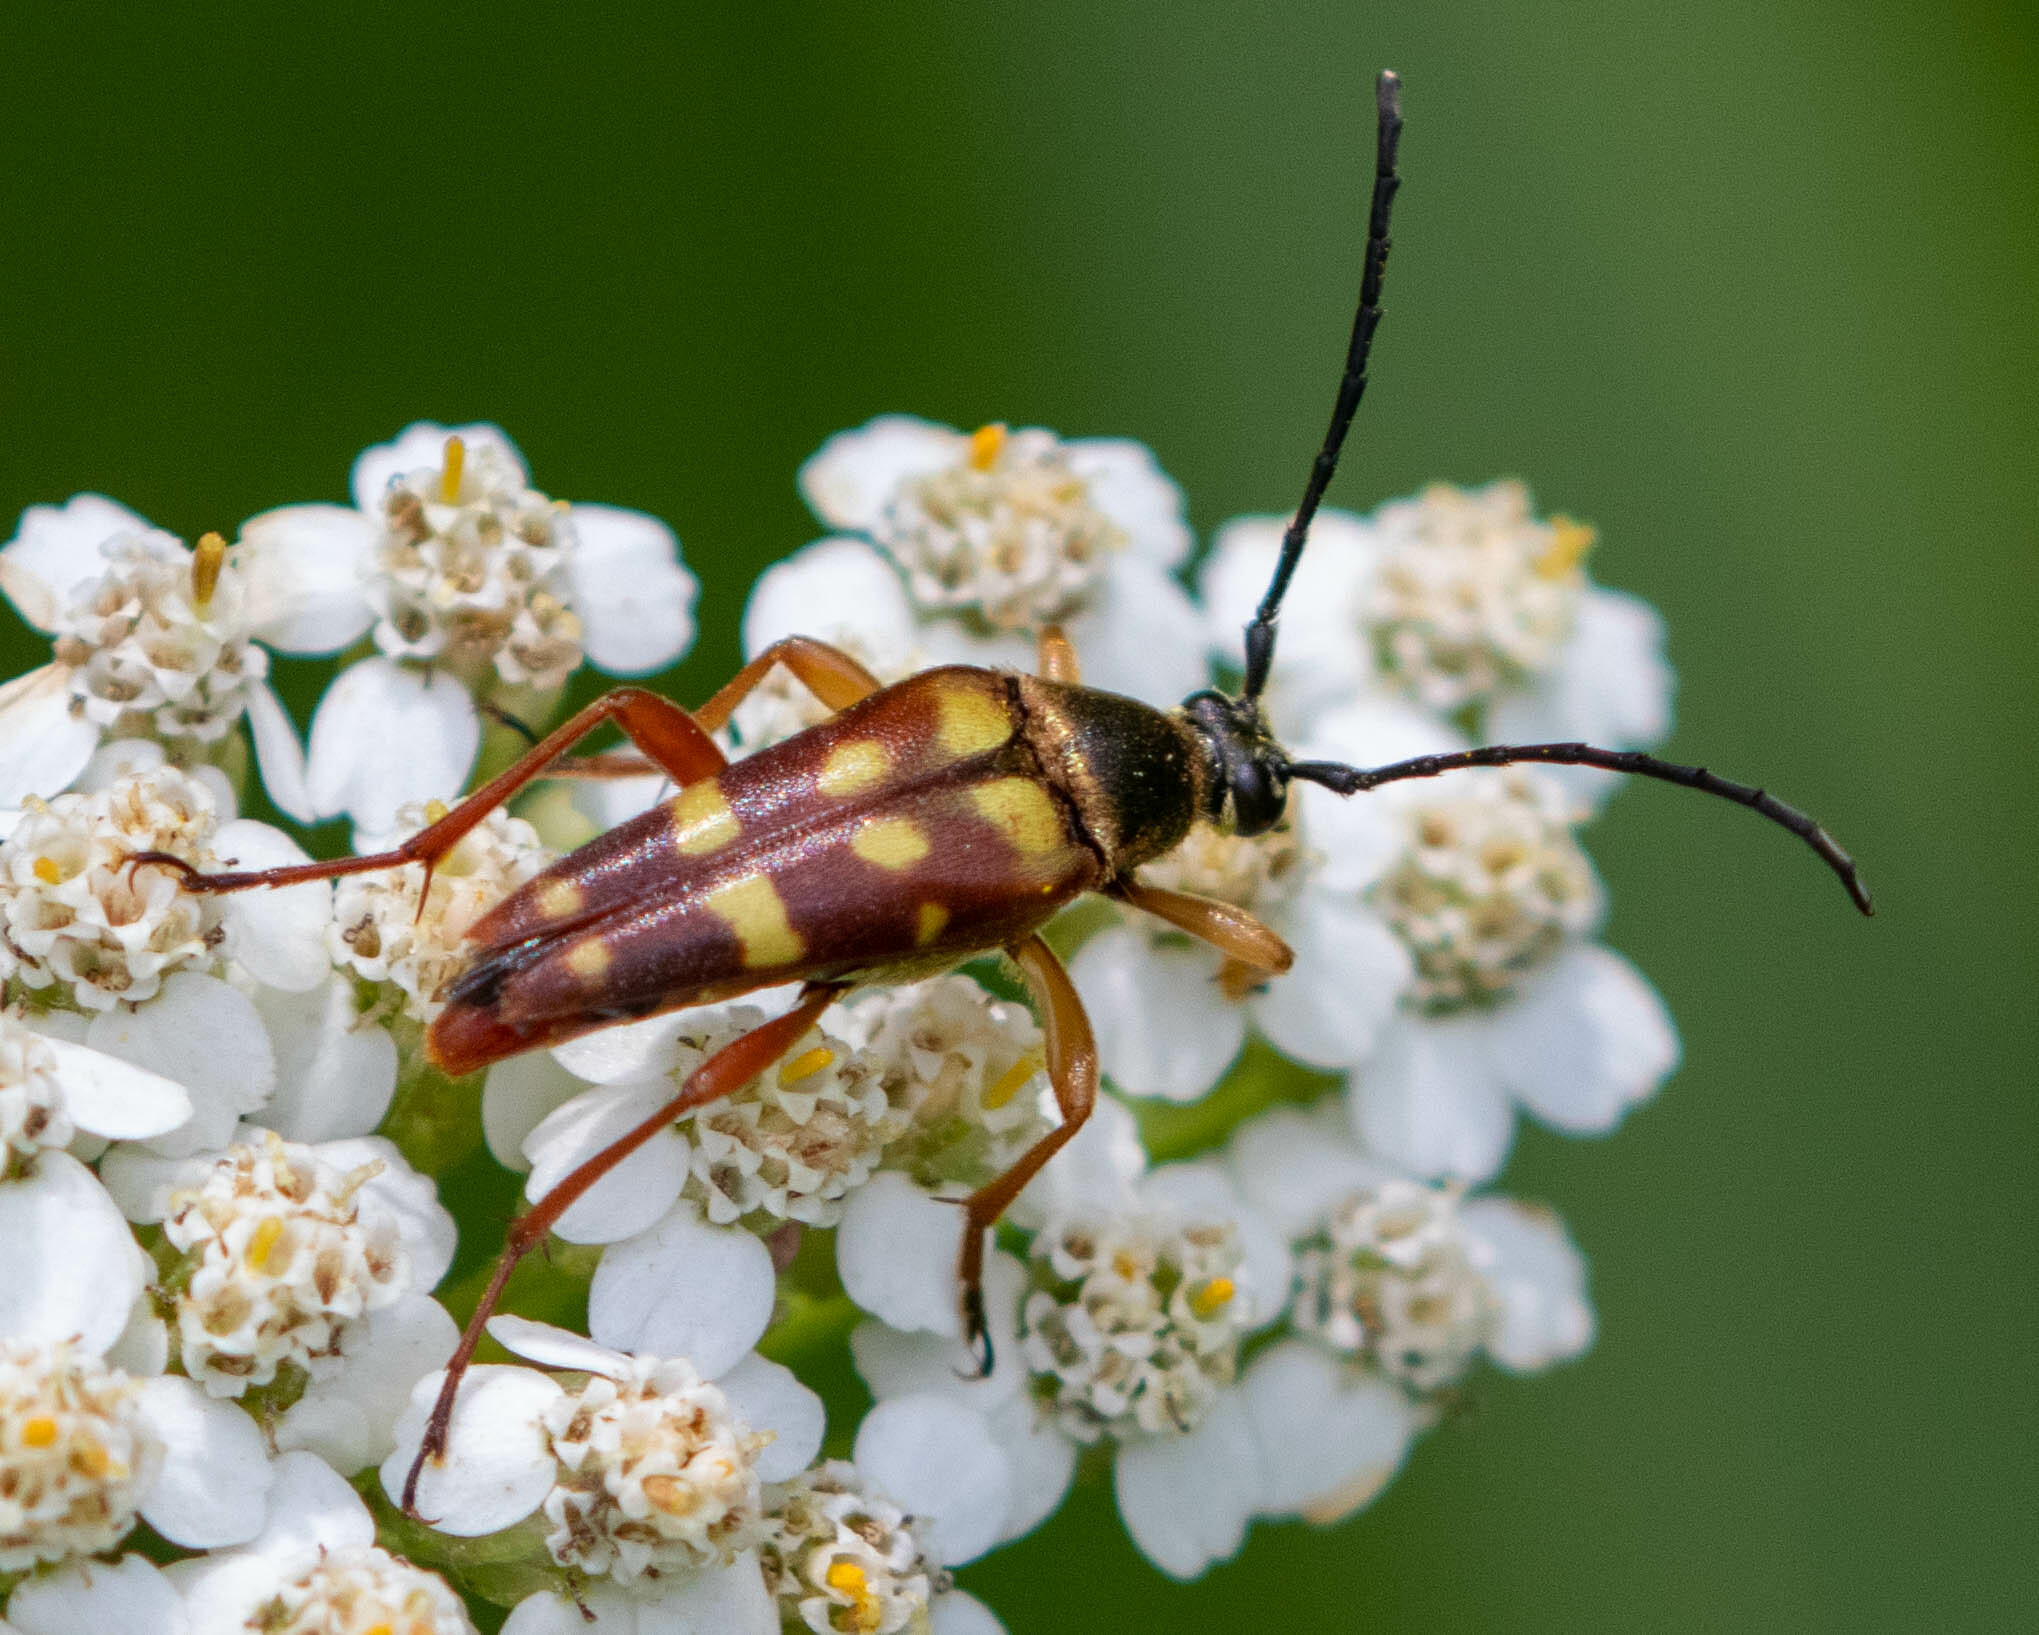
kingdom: Animalia
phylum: Arthropoda
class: Insecta
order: Coleoptera
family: Cerambycidae
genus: Typocerus
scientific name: Typocerus velutinus
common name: Banded longhorn beetle
